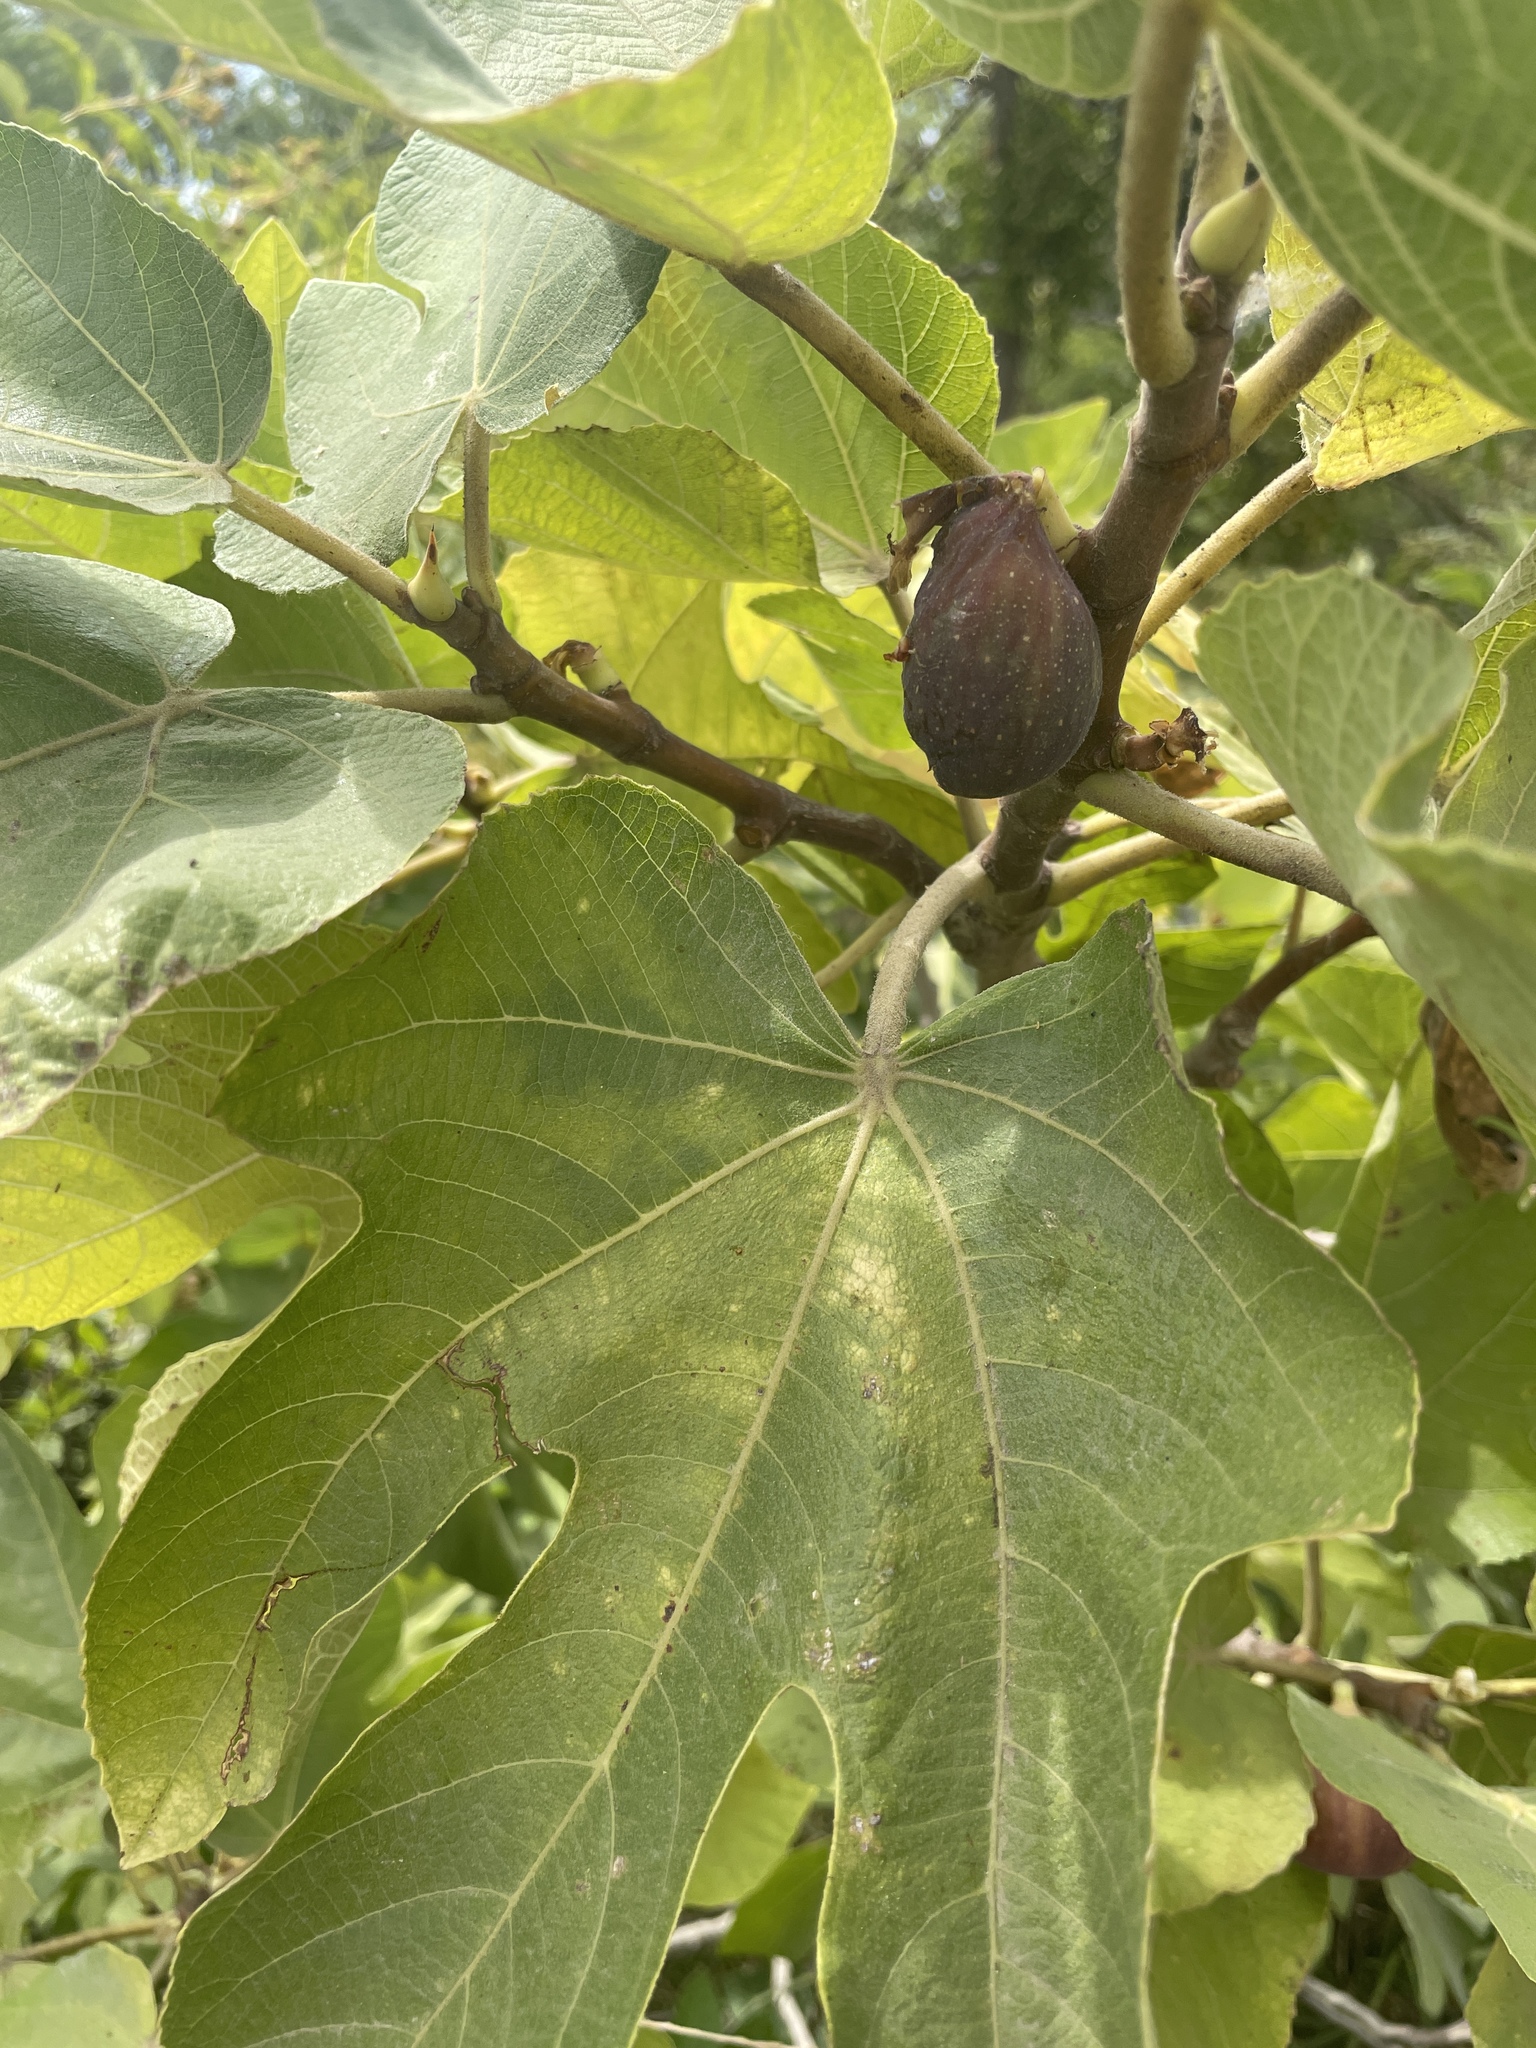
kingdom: Plantae
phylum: Tracheophyta
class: Magnoliopsida
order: Rosales
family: Moraceae
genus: Ficus
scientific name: Ficus carica
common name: Fig
